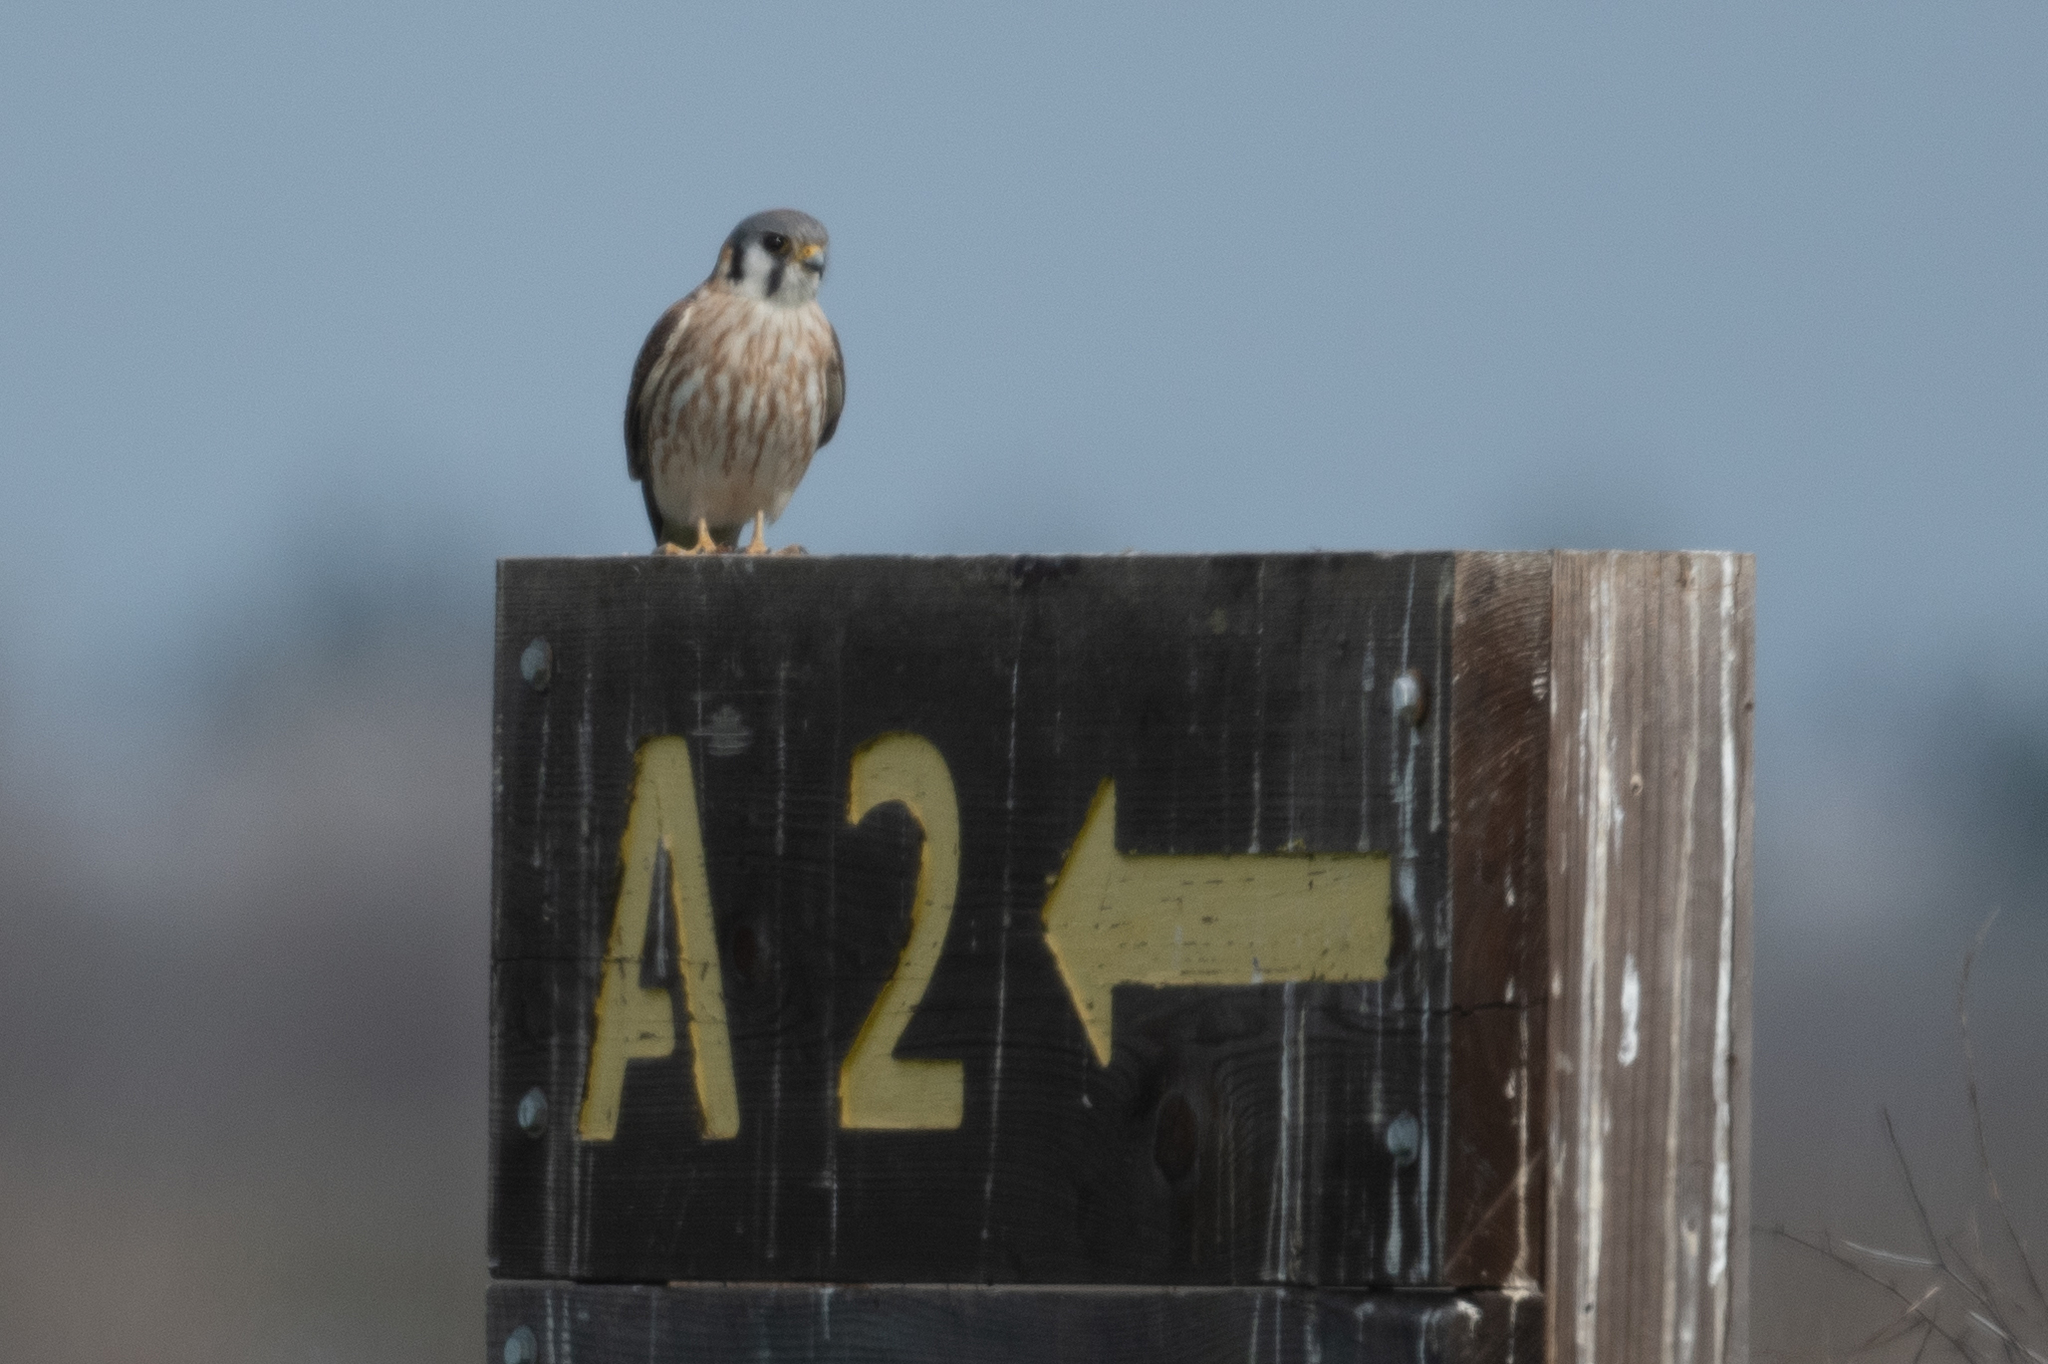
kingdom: Animalia
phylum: Chordata
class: Aves
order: Falconiformes
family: Falconidae
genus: Falco
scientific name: Falco sparverius
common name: American kestrel
